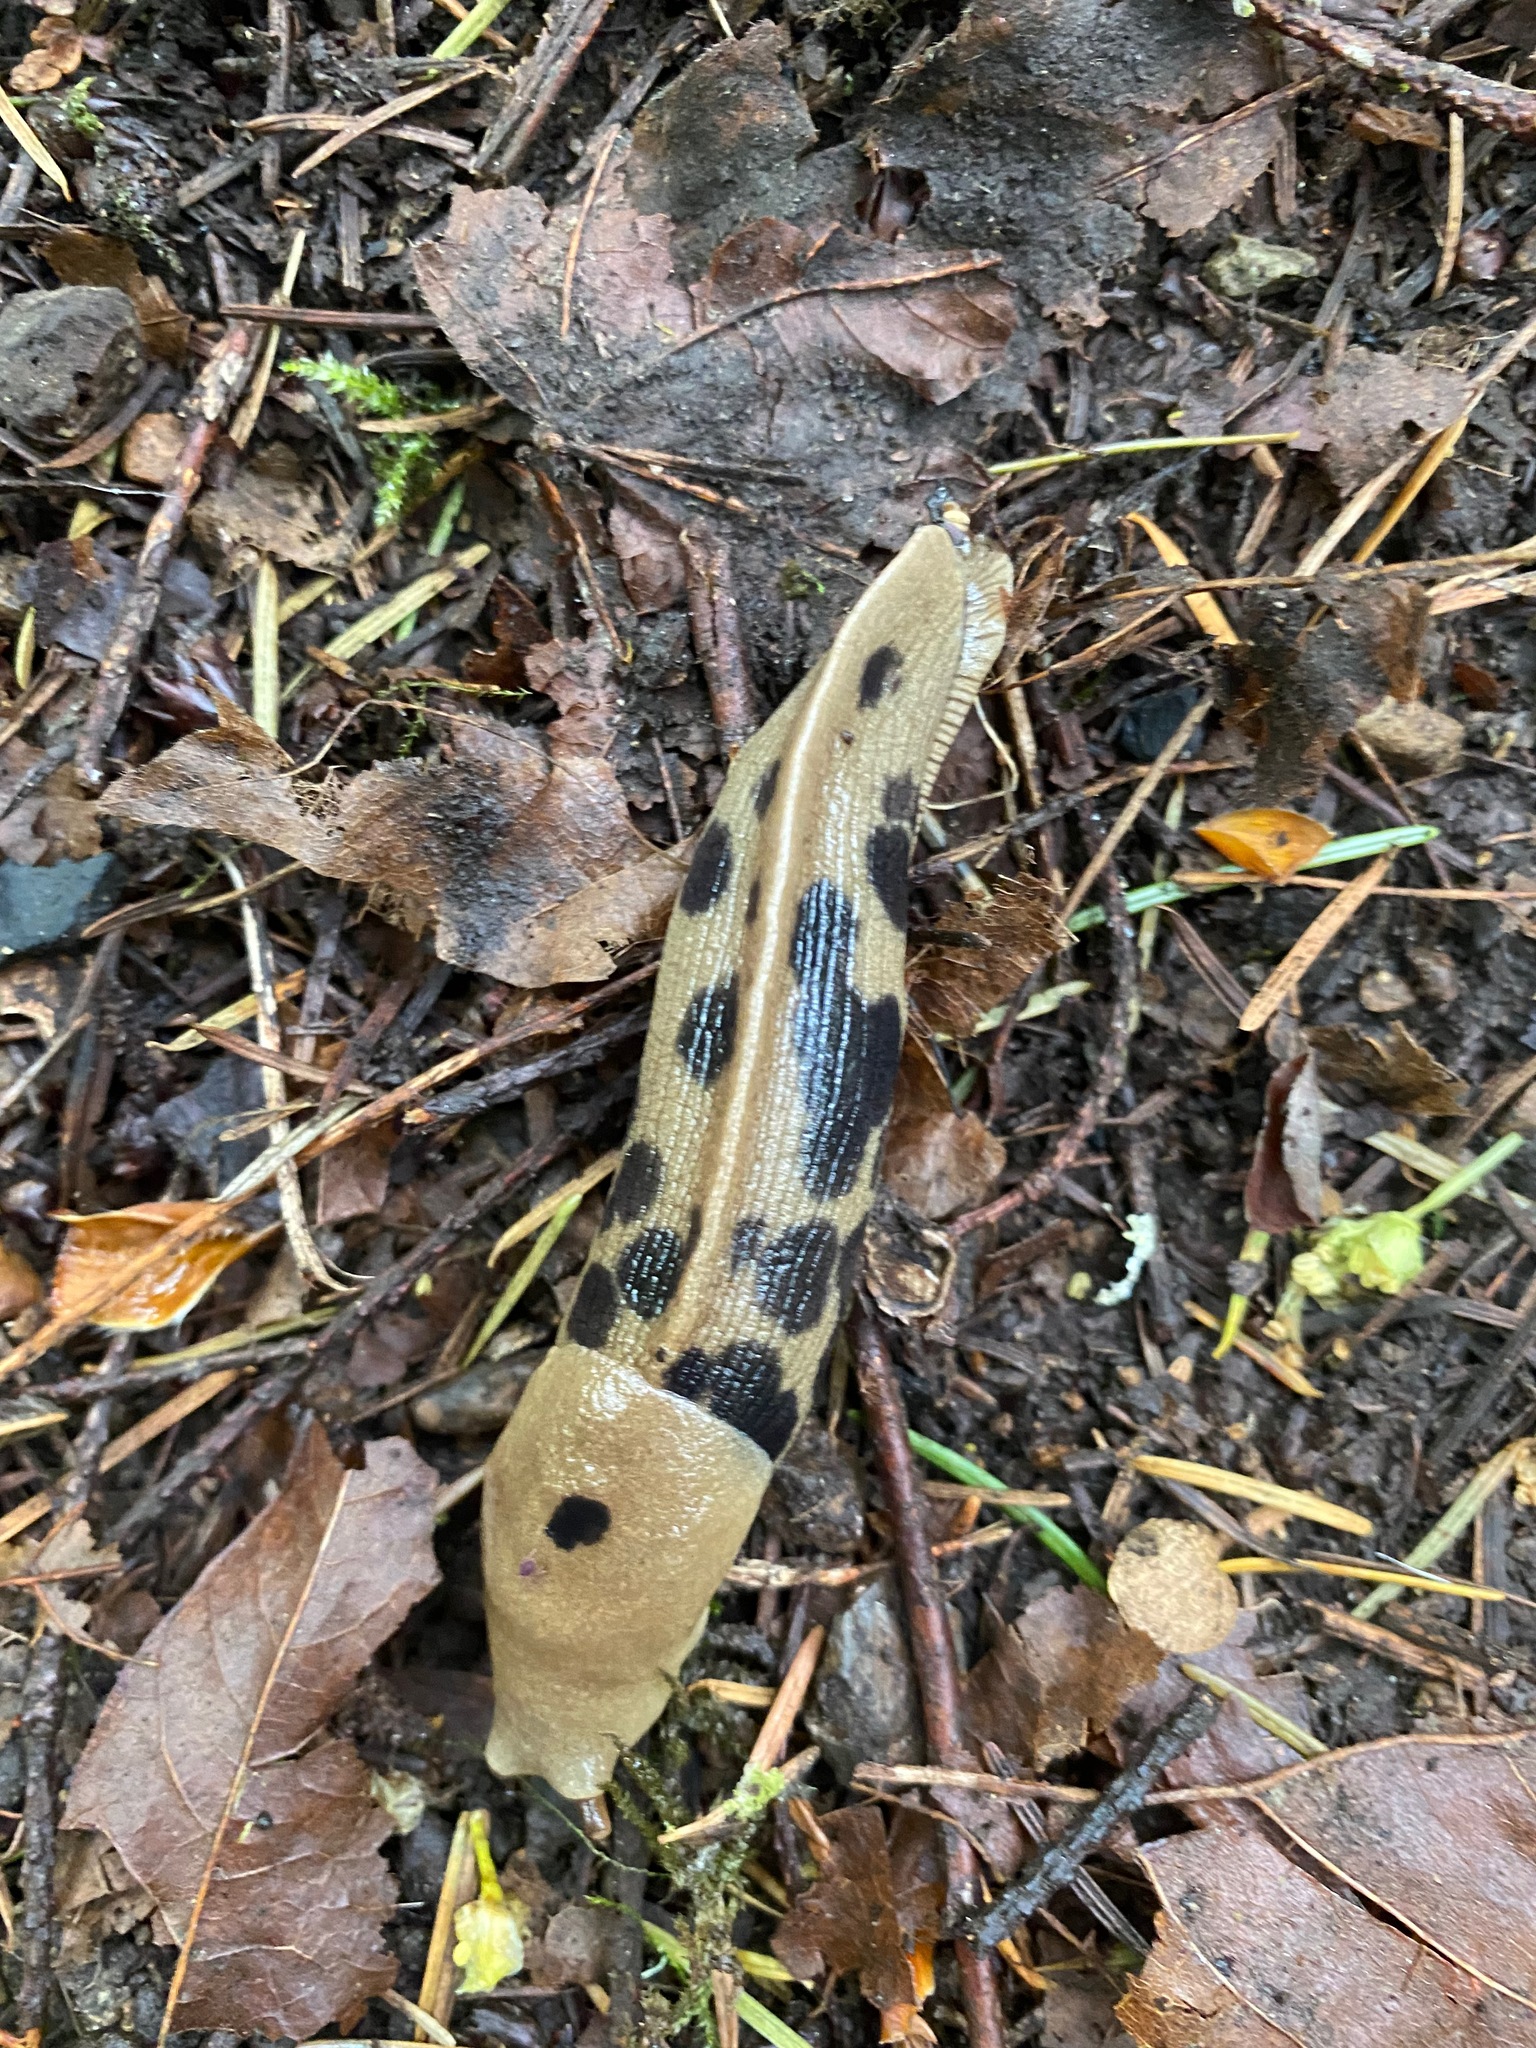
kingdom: Animalia
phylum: Mollusca
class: Gastropoda
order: Stylommatophora
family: Ariolimacidae
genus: Ariolimax
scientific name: Ariolimax columbianus
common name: Pacific banana slug
